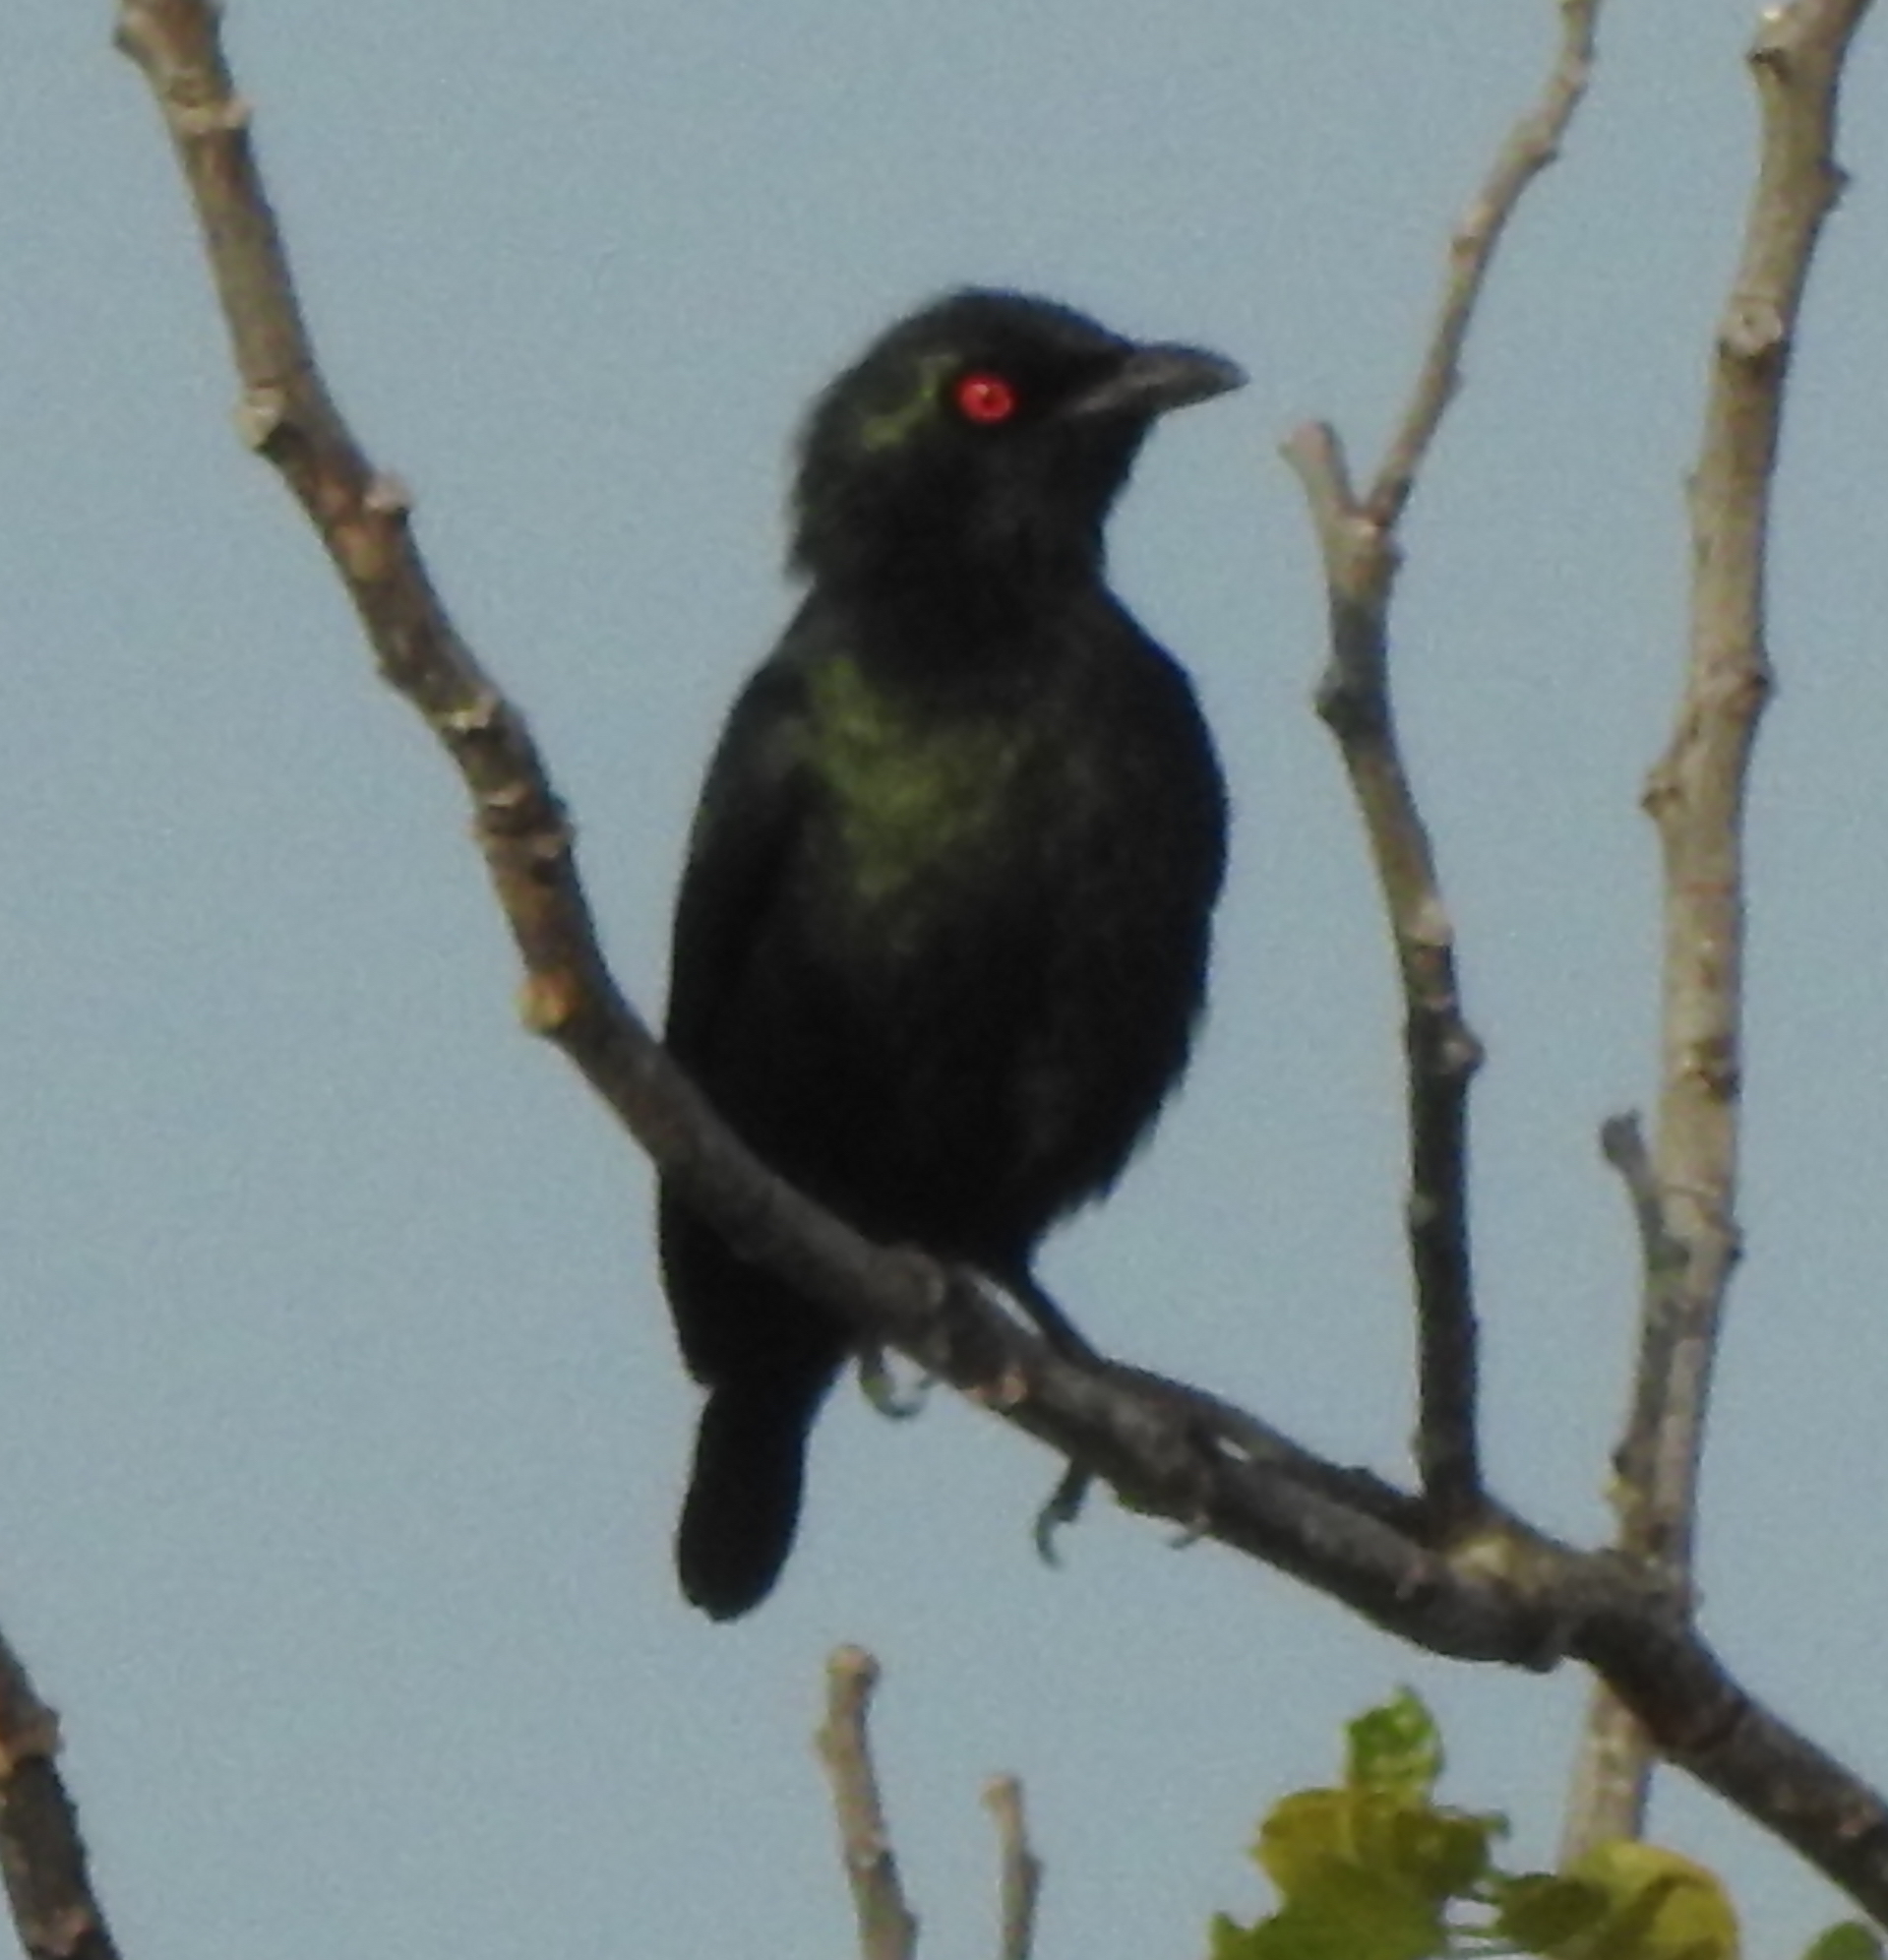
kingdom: Animalia
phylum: Chordata
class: Aves
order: Passeriformes
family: Sturnidae
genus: Aplonis
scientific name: Aplonis panayensis
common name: Asian glossy starling
